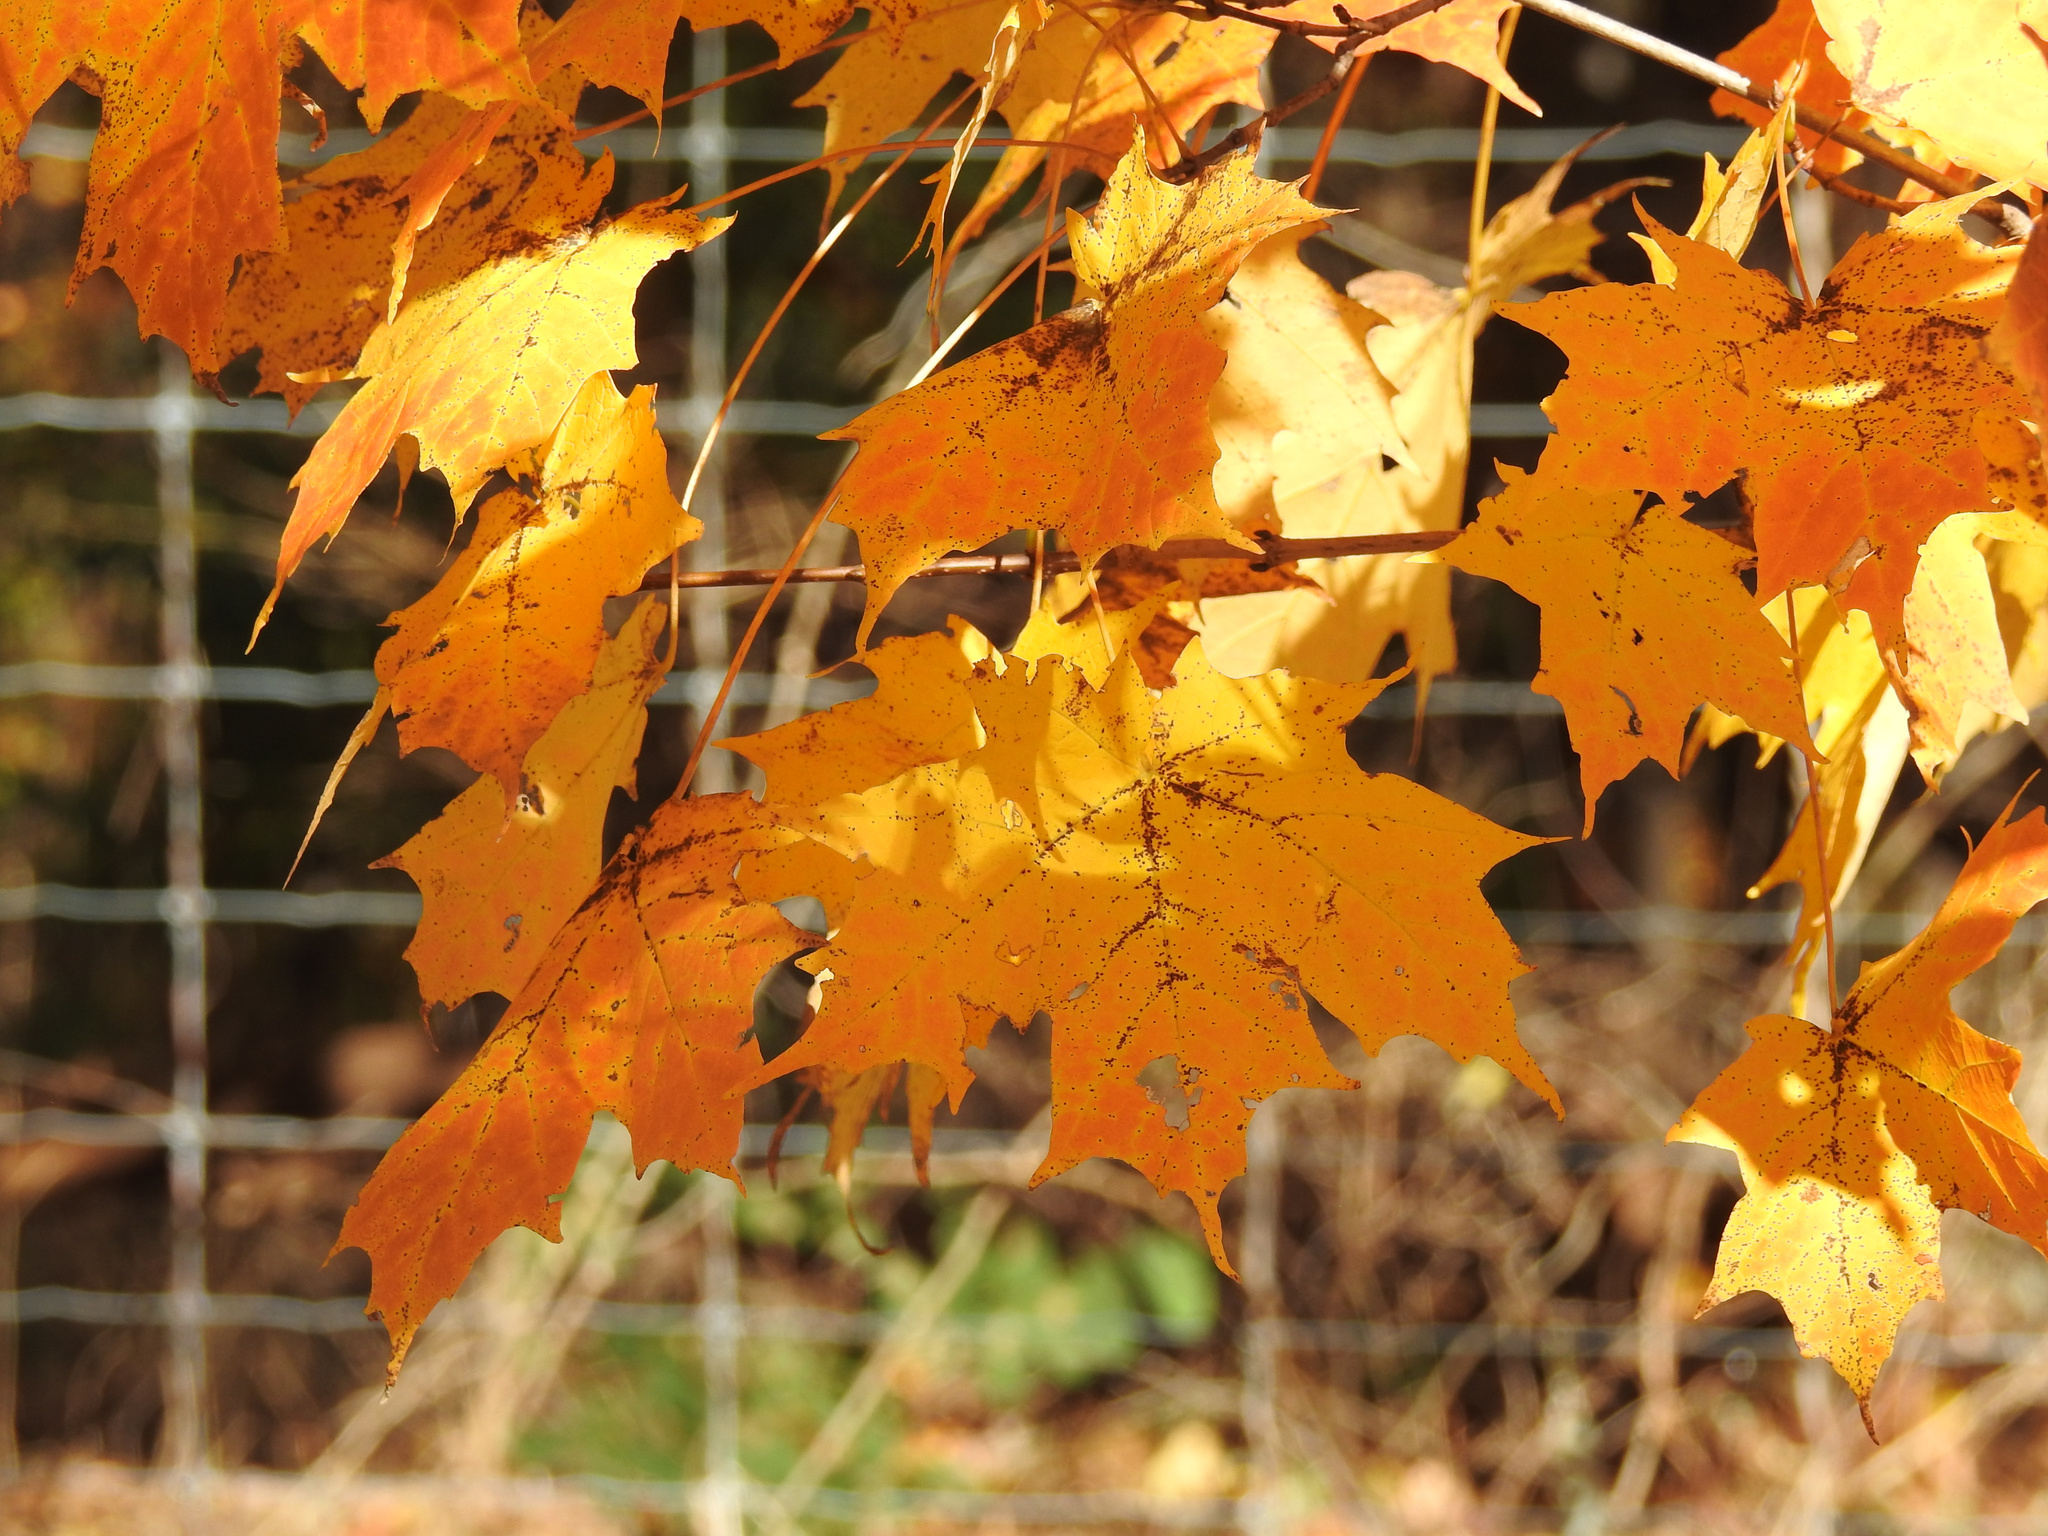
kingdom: Plantae
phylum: Tracheophyta
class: Magnoliopsida
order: Sapindales
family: Sapindaceae
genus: Acer
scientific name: Acer saccharum
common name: Sugar maple
